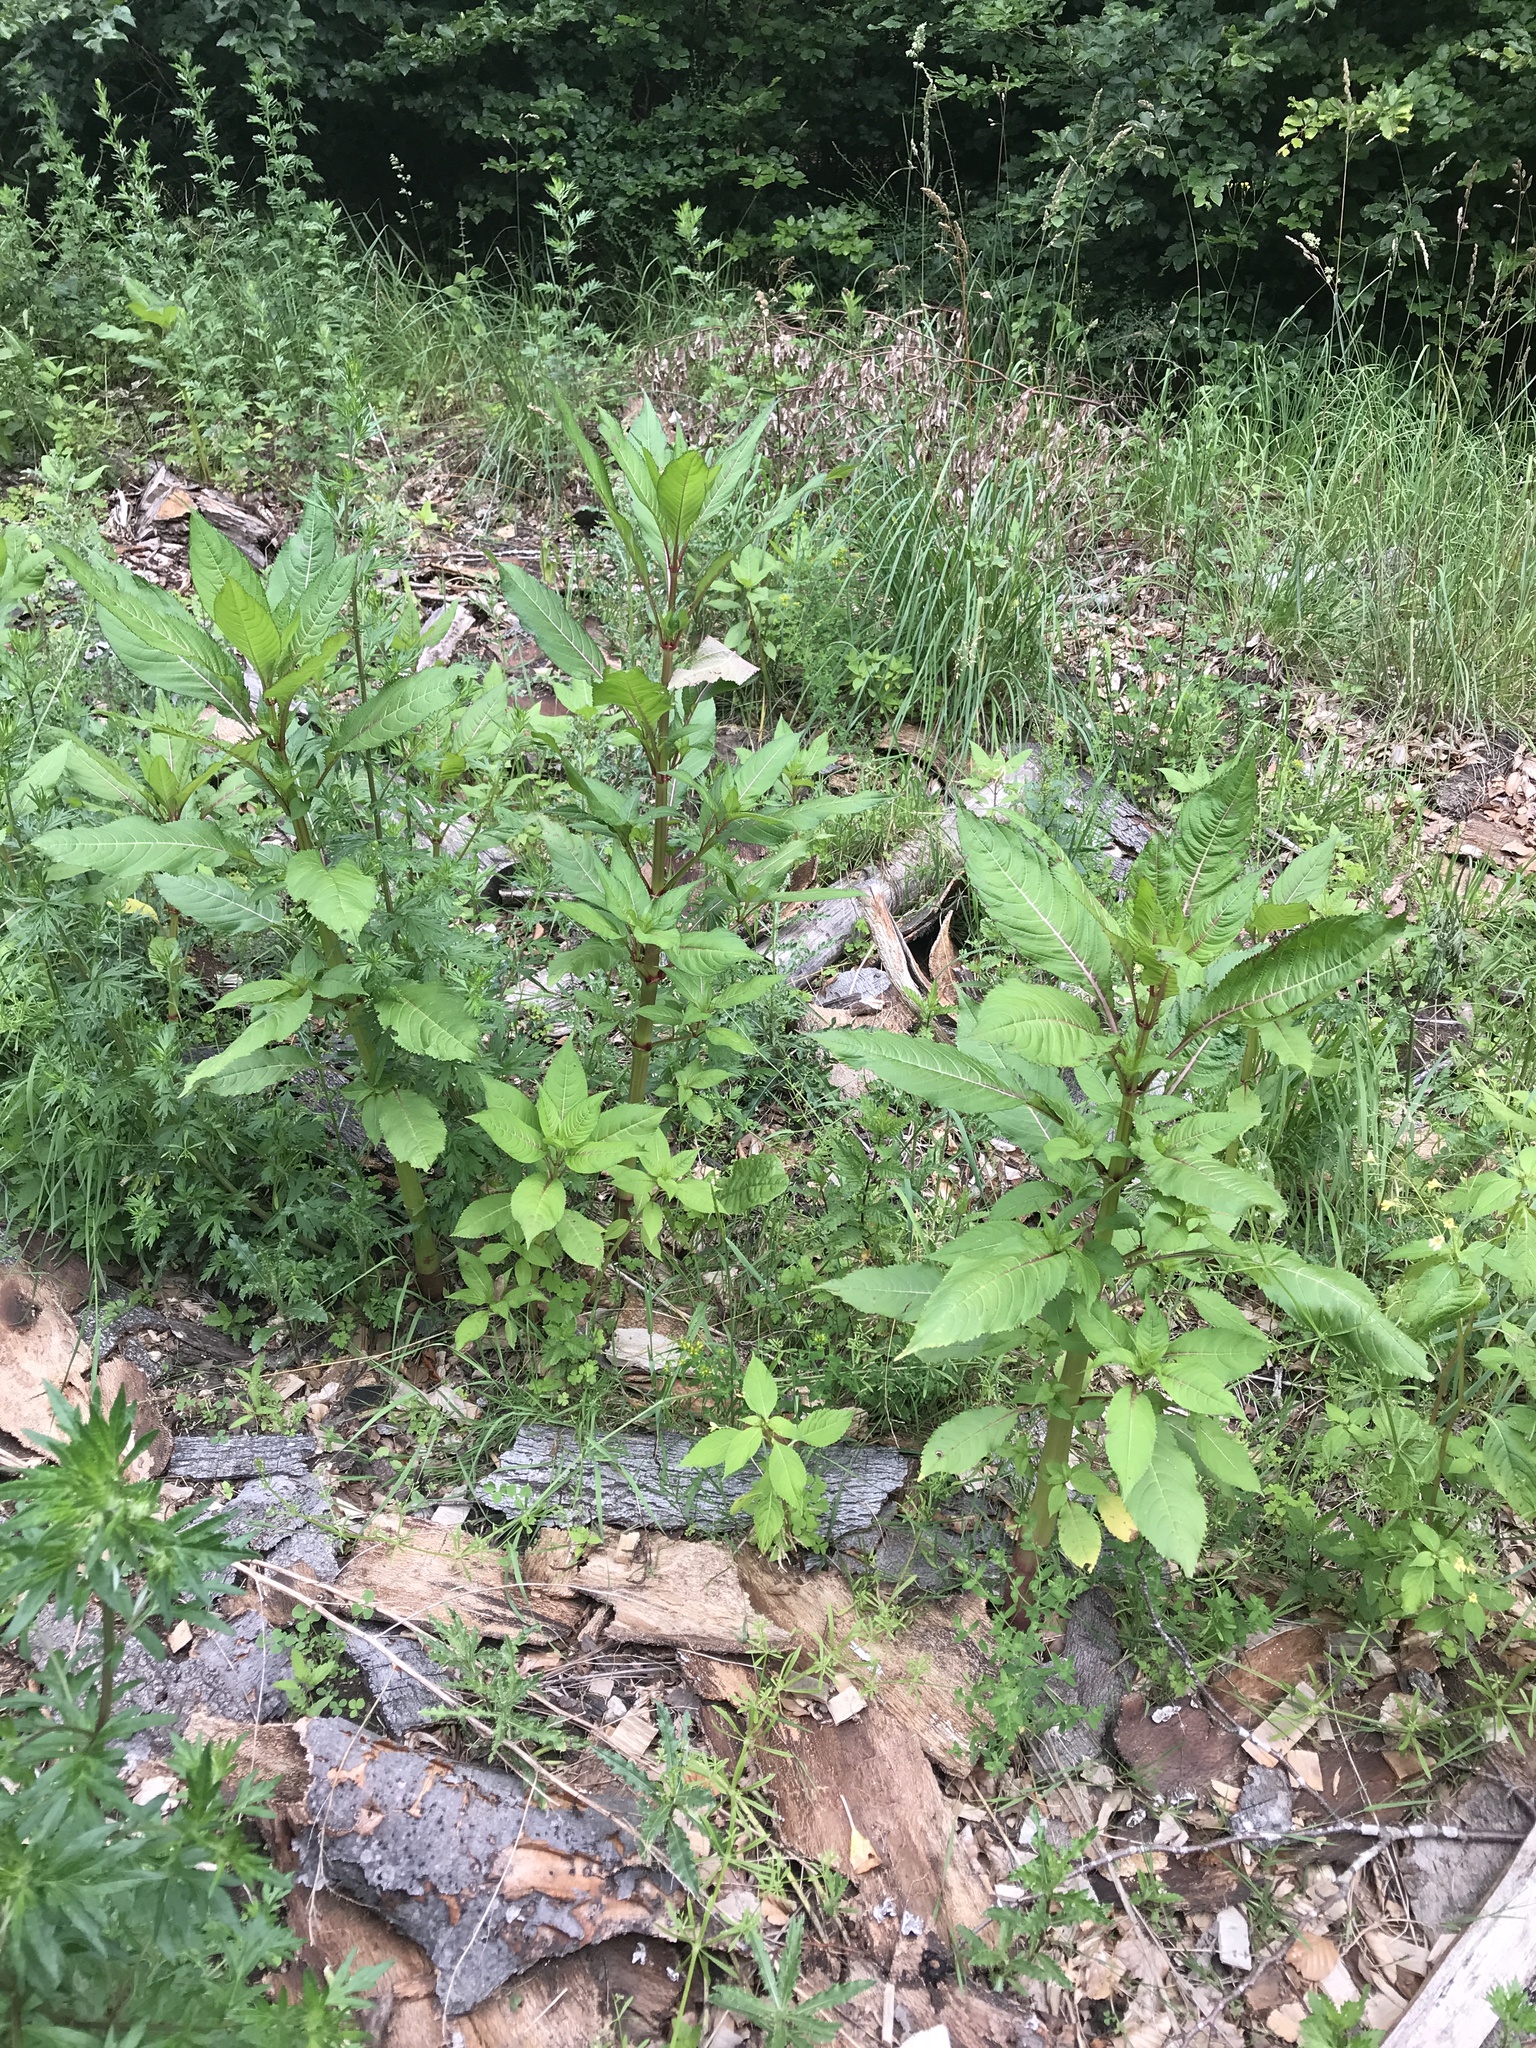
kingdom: Plantae
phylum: Tracheophyta
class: Magnoliopsida
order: Ericales
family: Balsaminaceae
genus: Impatiens
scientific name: Impatiens glandulifera
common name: Himalayan balsam
